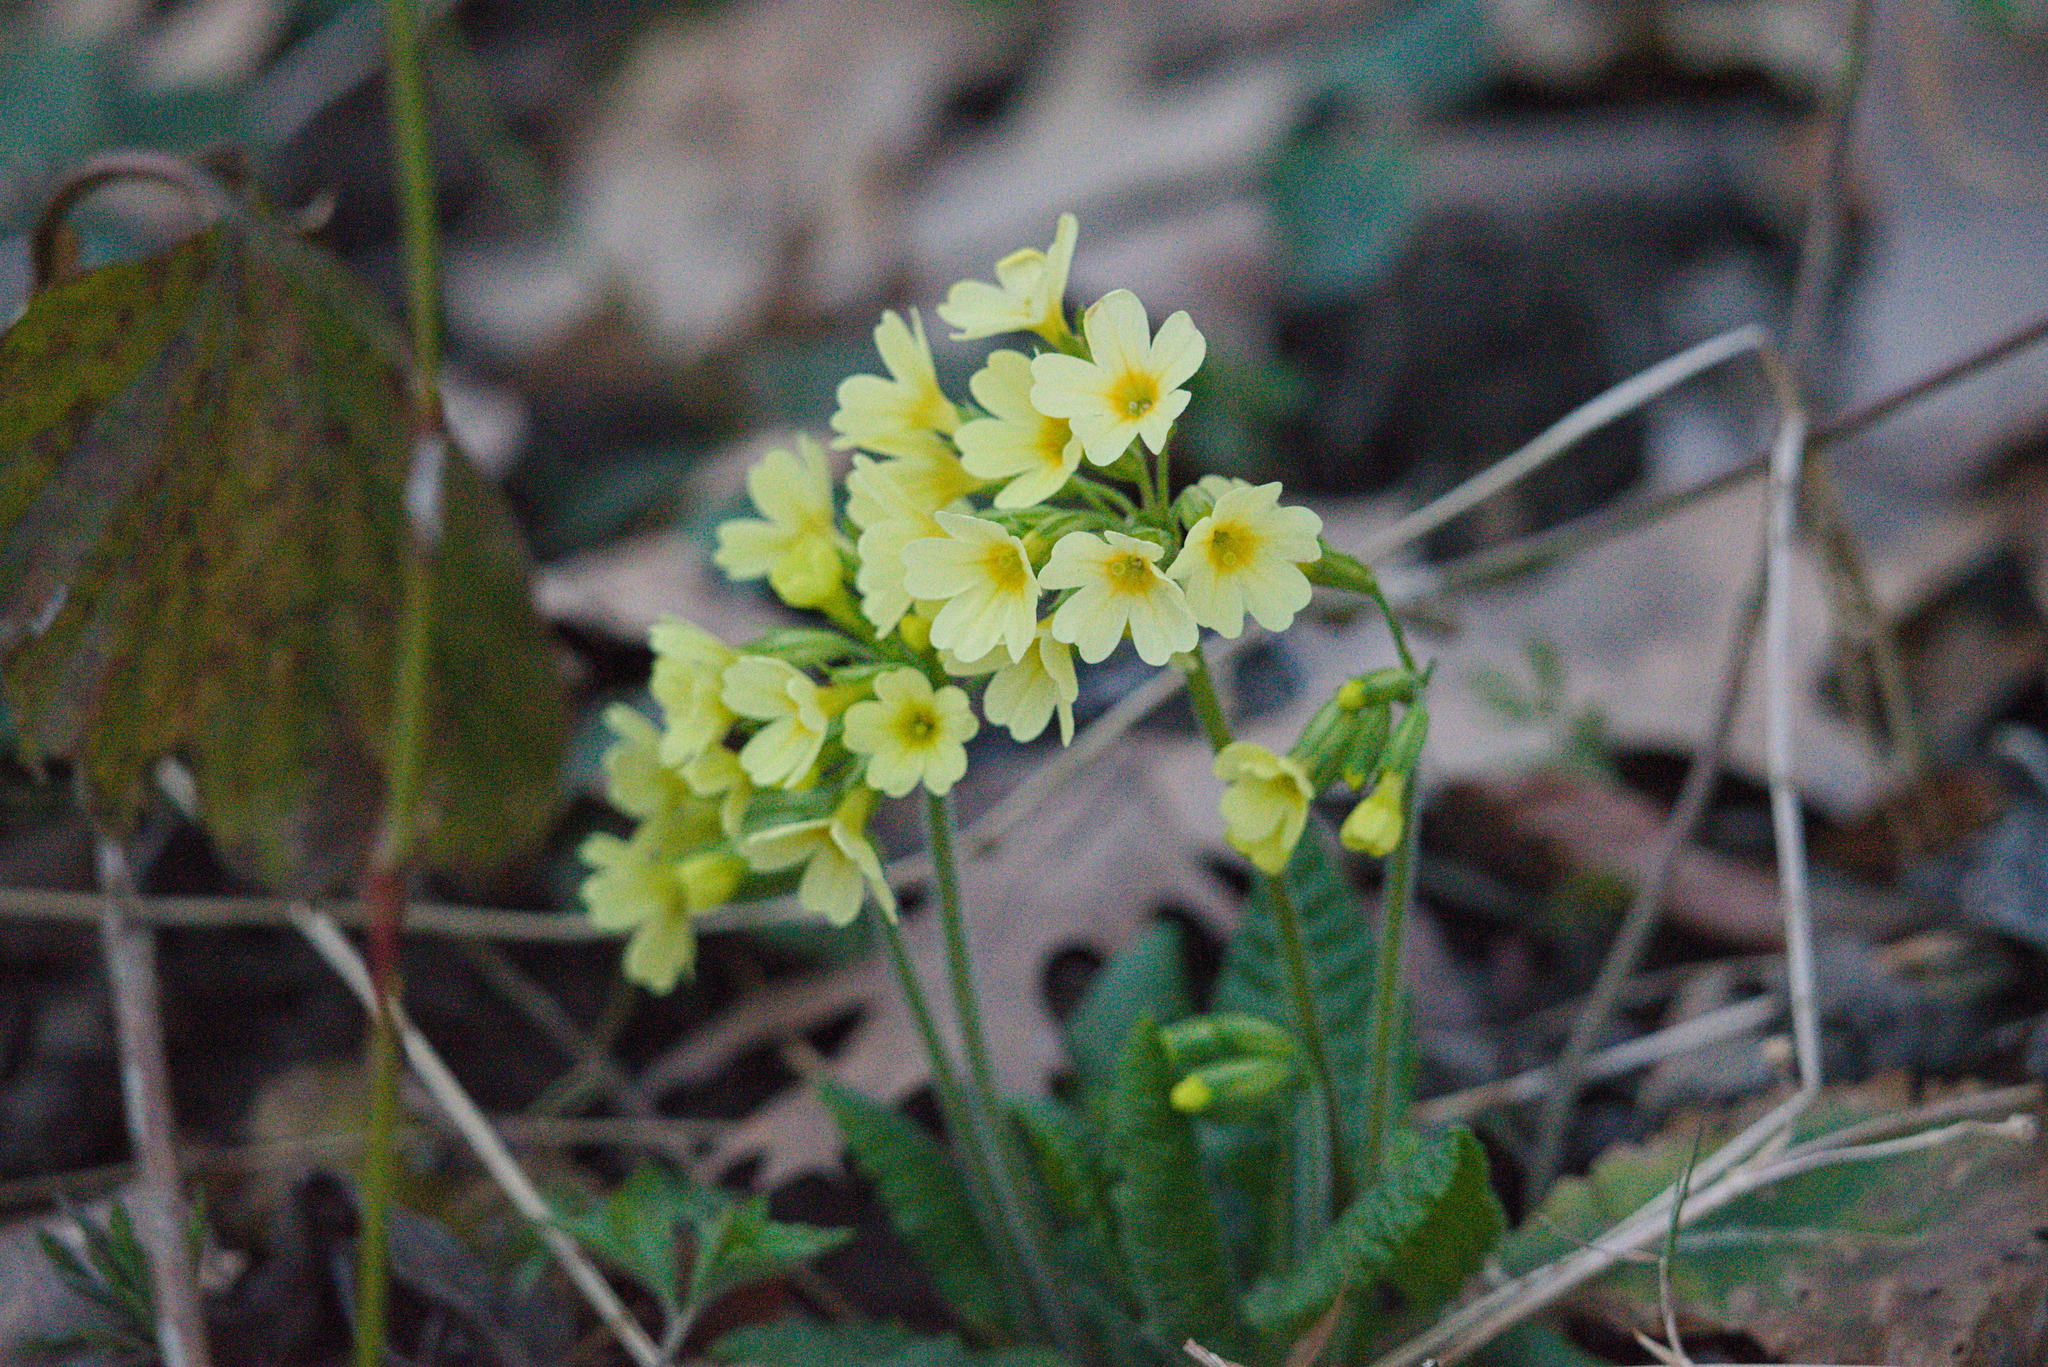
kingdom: Plantae
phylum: Tracheophyta
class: Magnoliopsida
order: Ericales
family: Primulaceae
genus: Primula
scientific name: Primula elatior
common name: Oxlip
